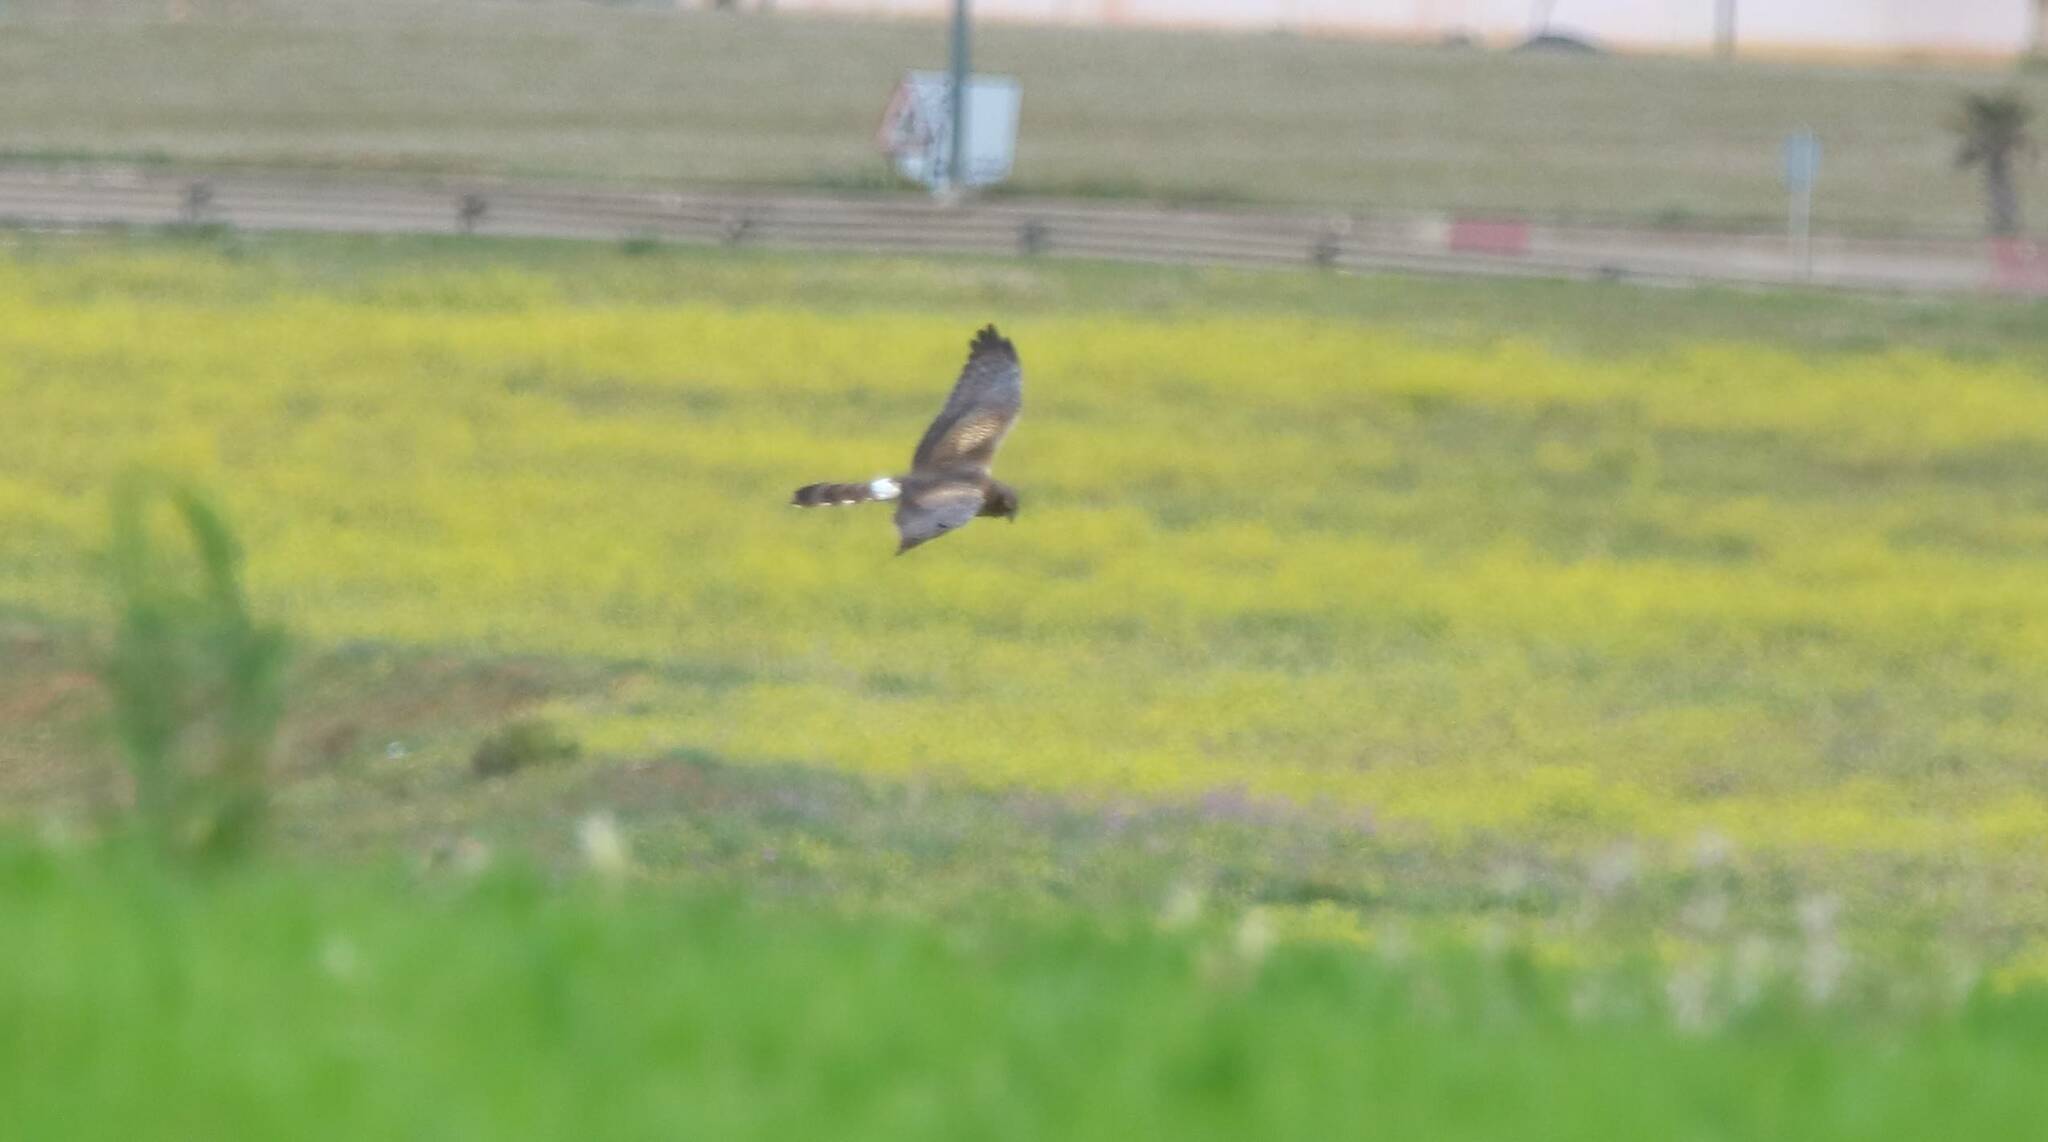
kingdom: Animalia
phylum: Chordata
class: Aves
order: Accipitriformes
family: Accipitridae
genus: Circus
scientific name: Circus pygargus
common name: Montagu's harrier
